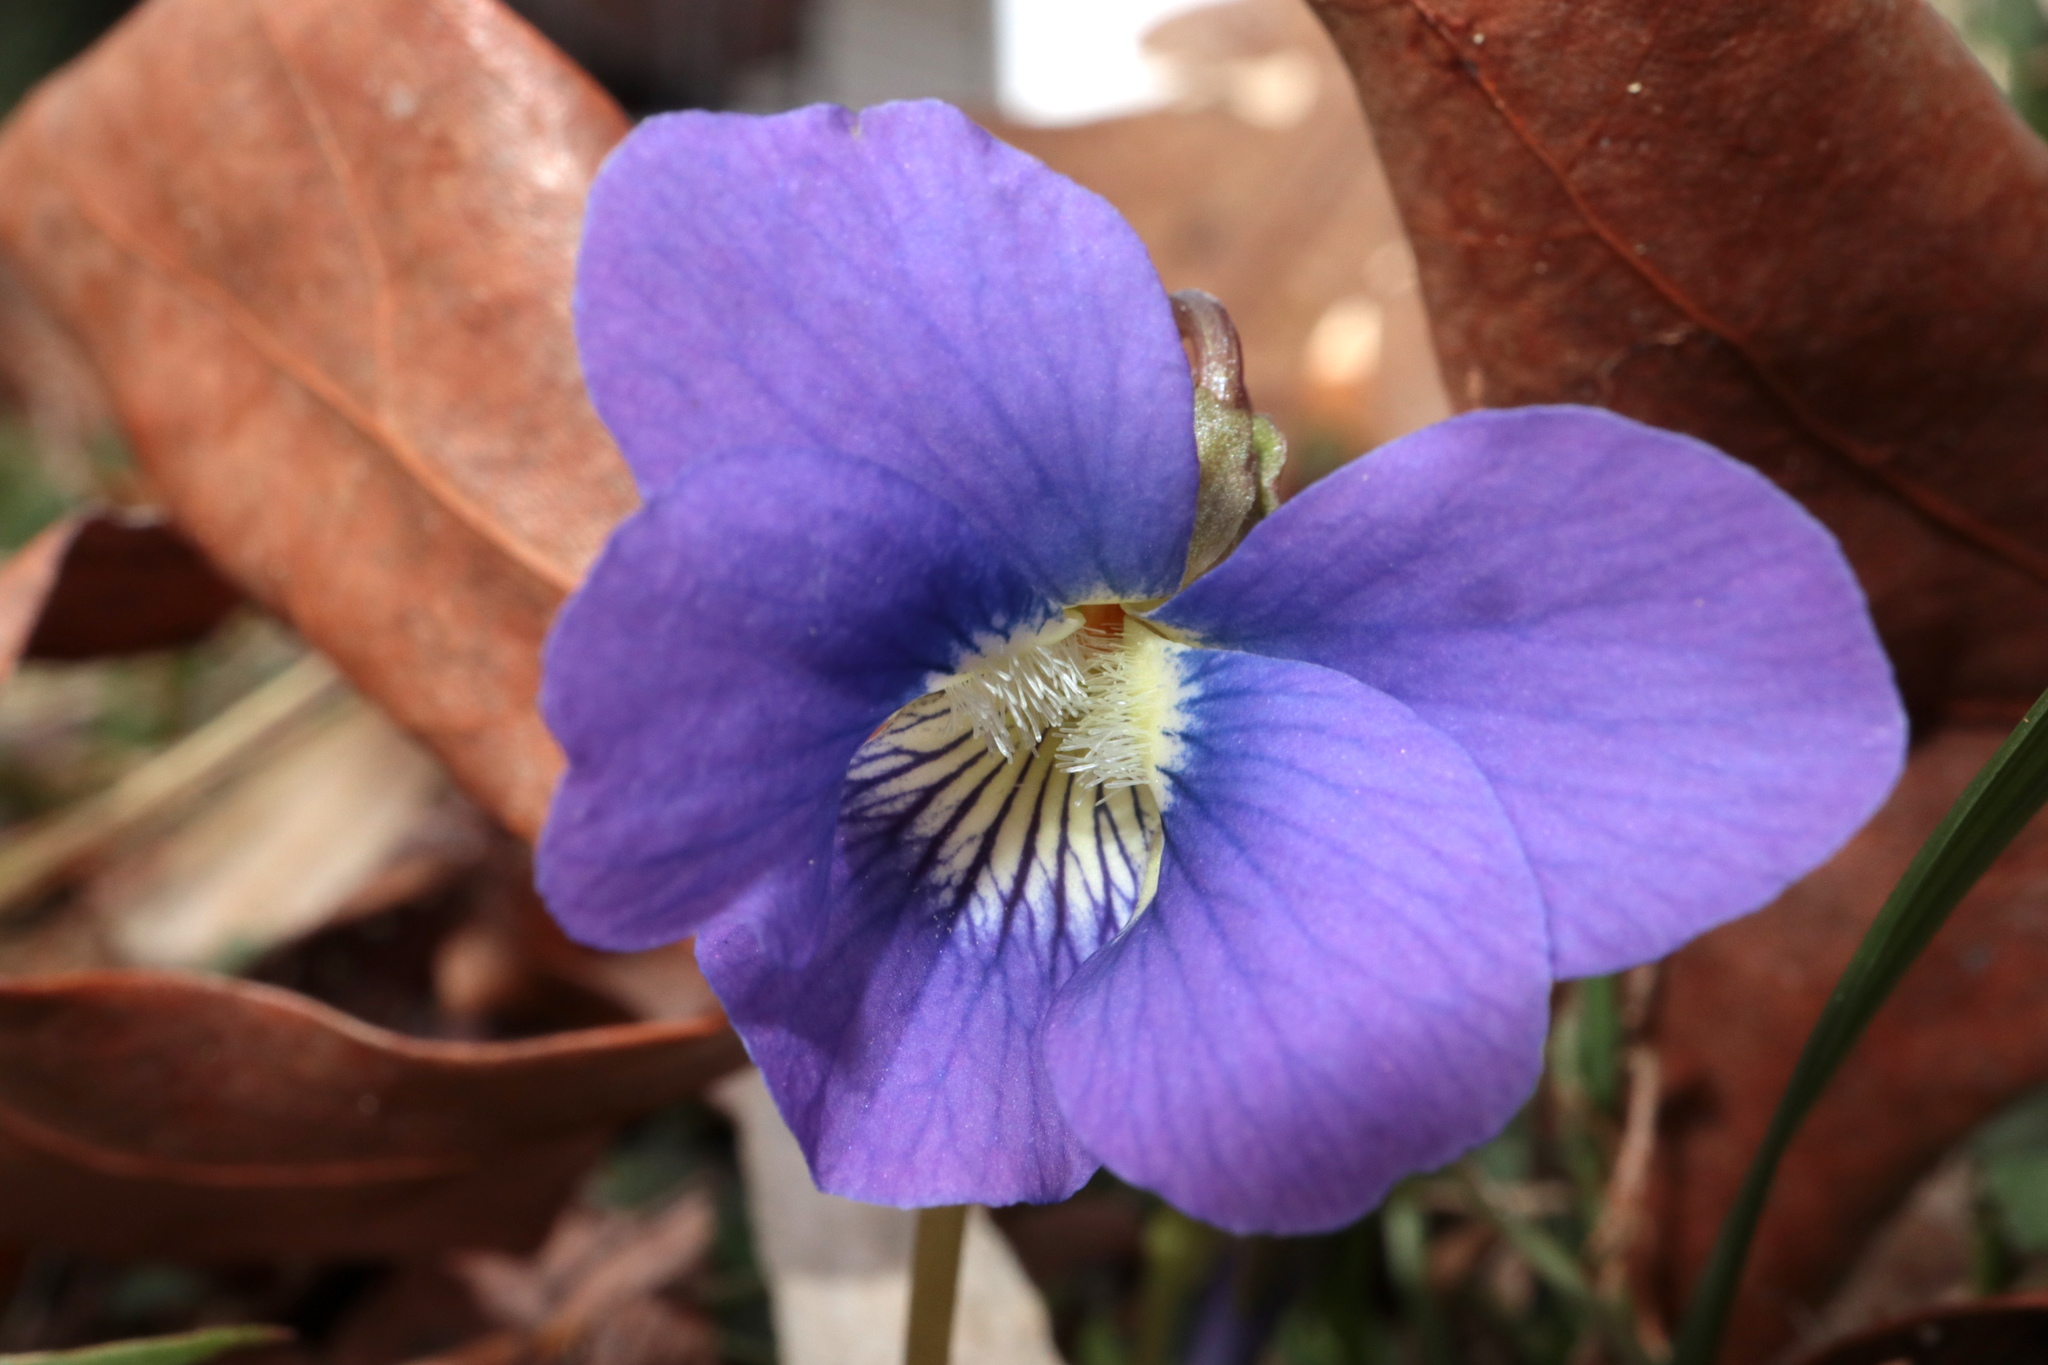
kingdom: Plantae
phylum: Tracheophyta
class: Magnoliopsida
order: Malpighiales
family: Violaceae
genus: Viola
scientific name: Viola sororia
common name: Dooryard violet
